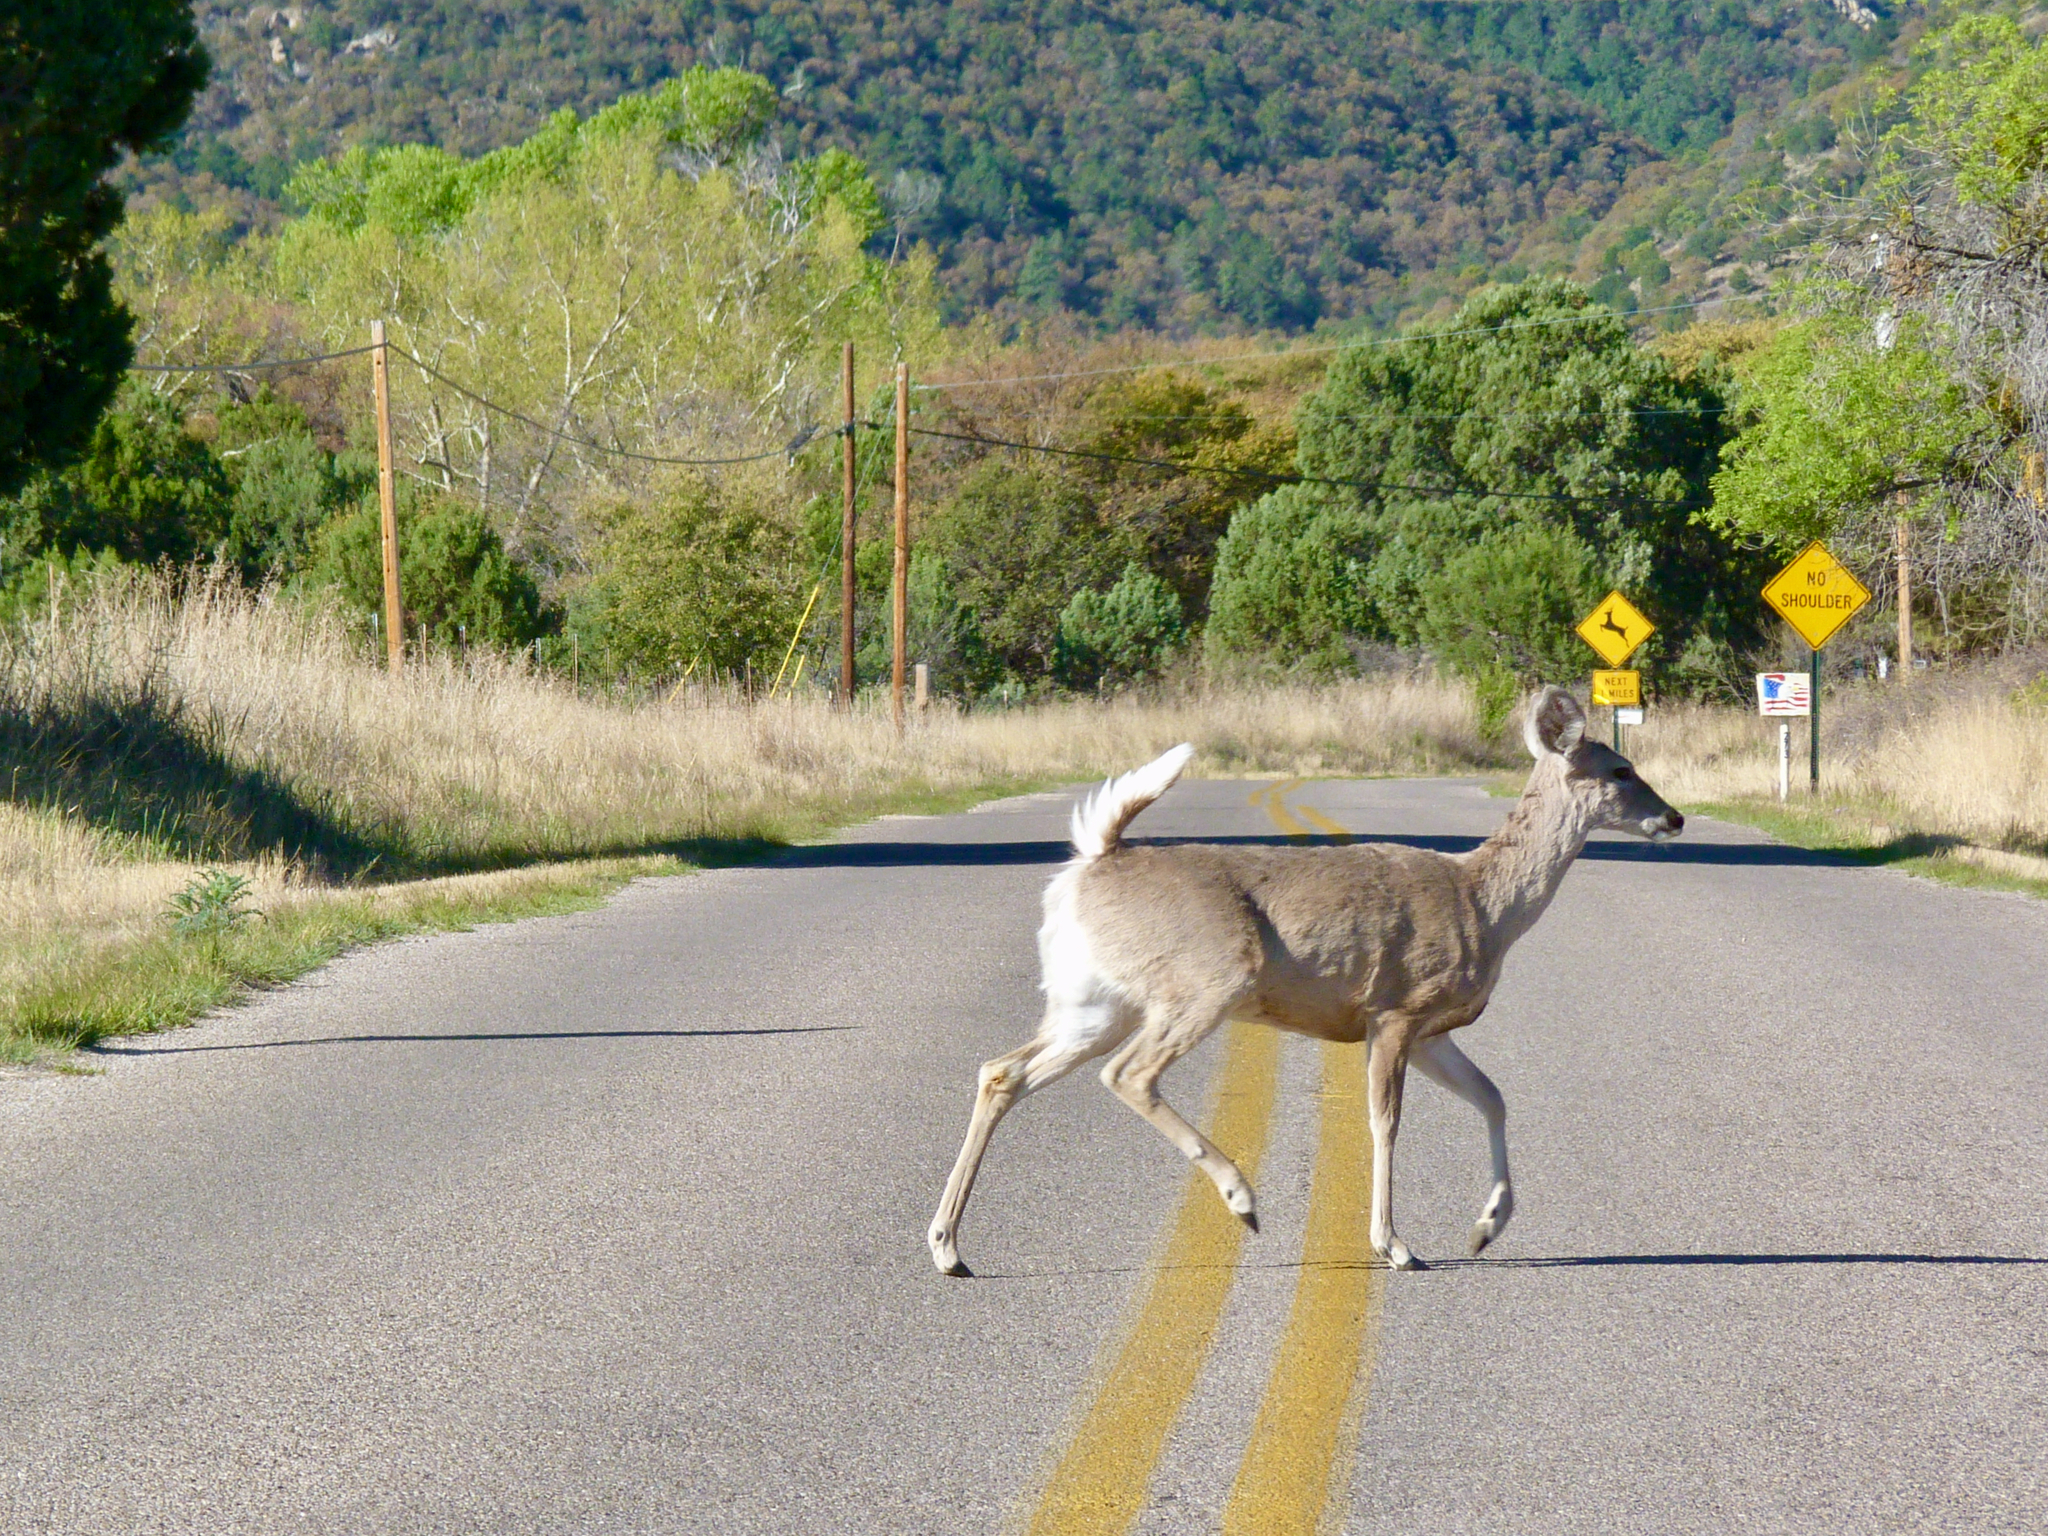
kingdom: Animalia
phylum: Chordata
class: Mammalia
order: Artiodactyla
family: Cervidae
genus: Odocoileus
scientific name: Odocoileus virginianus
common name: White-tailed deer
